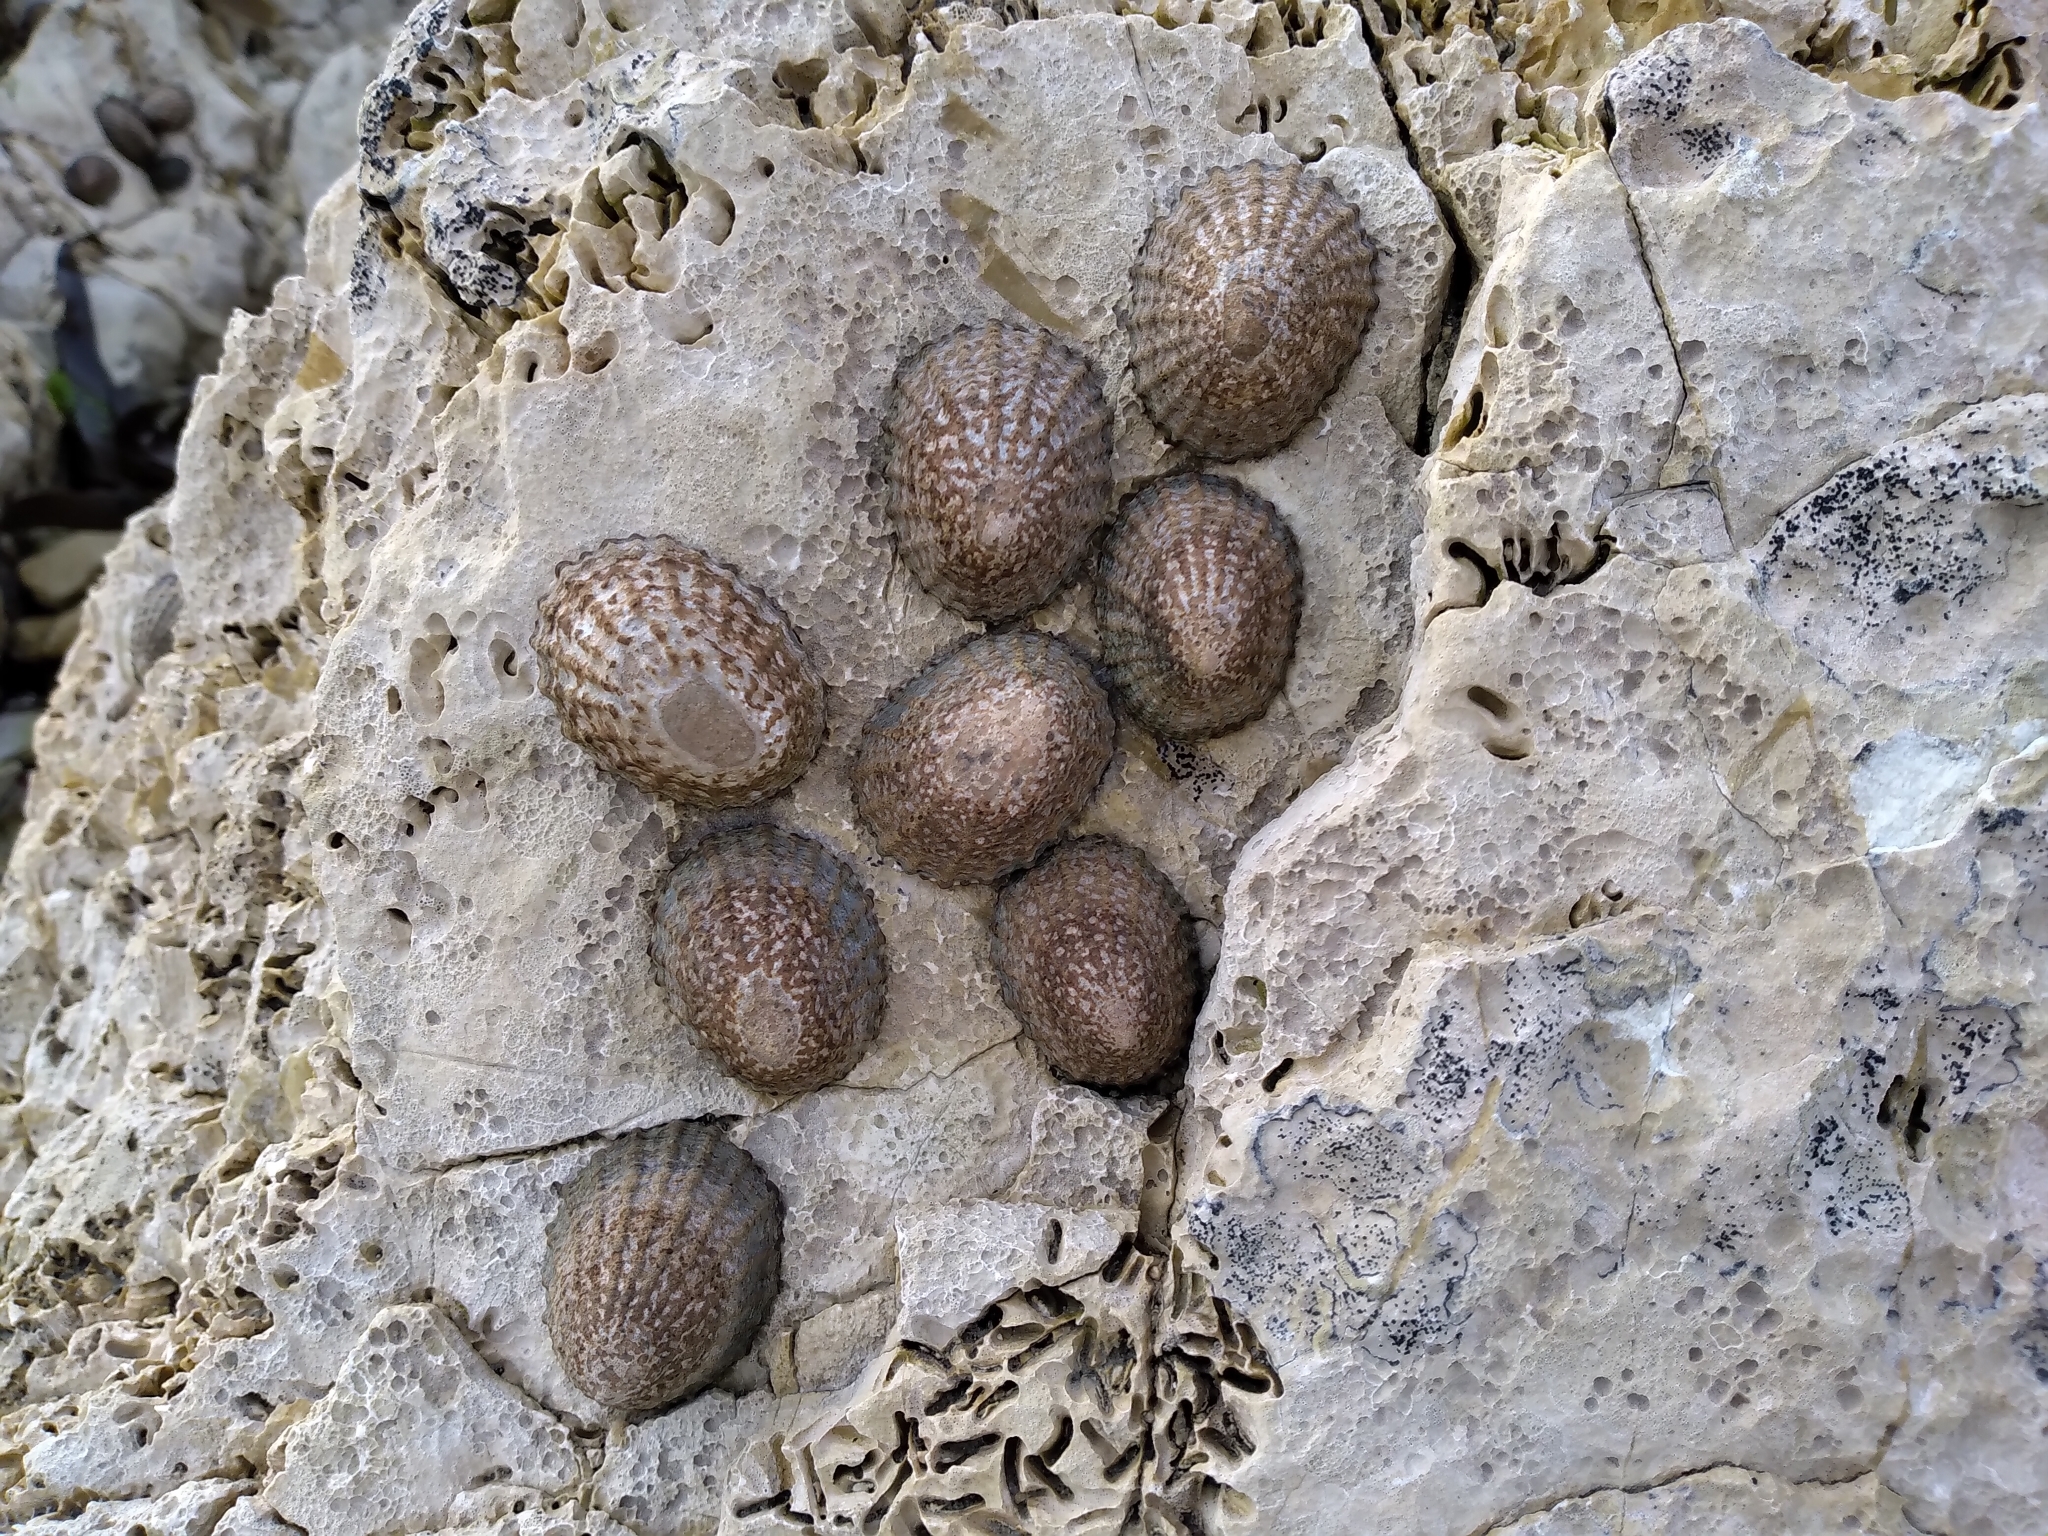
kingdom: Animalia
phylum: Mollusca
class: Gastropoda
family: Nacellidae
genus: Cellana
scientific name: Cellana denticulata
